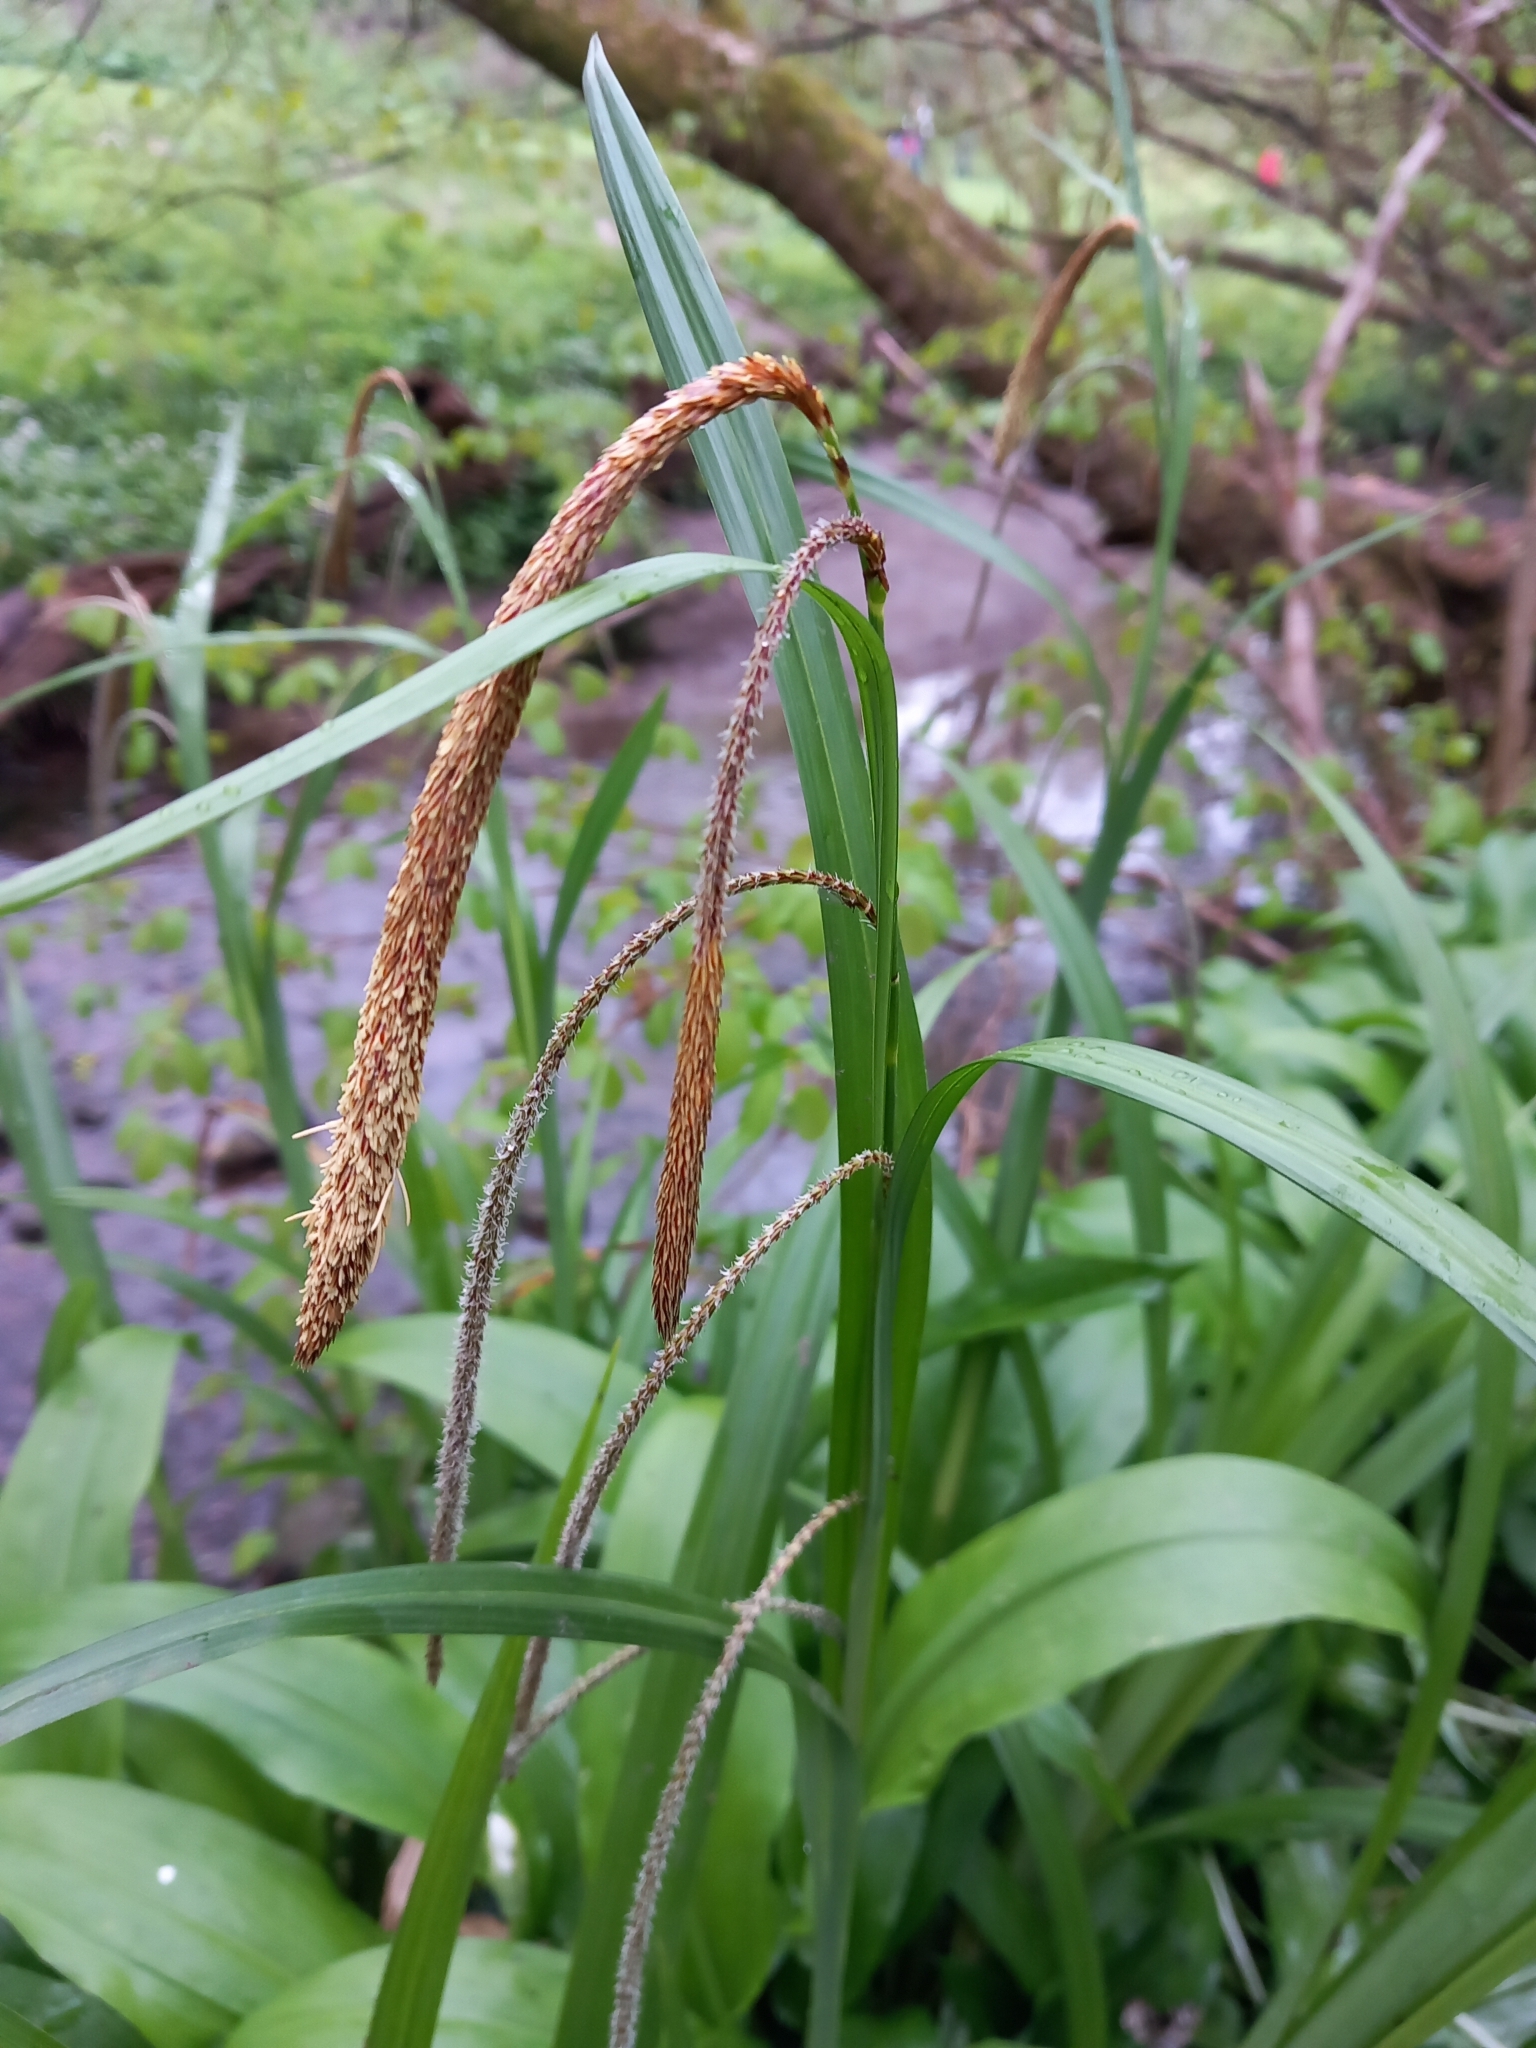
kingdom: Plantae
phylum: Tracheophyta
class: Liliopsida
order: Poales
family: Cyperaceae
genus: Carex
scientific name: Carex pendula
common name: Pendulous sedge
